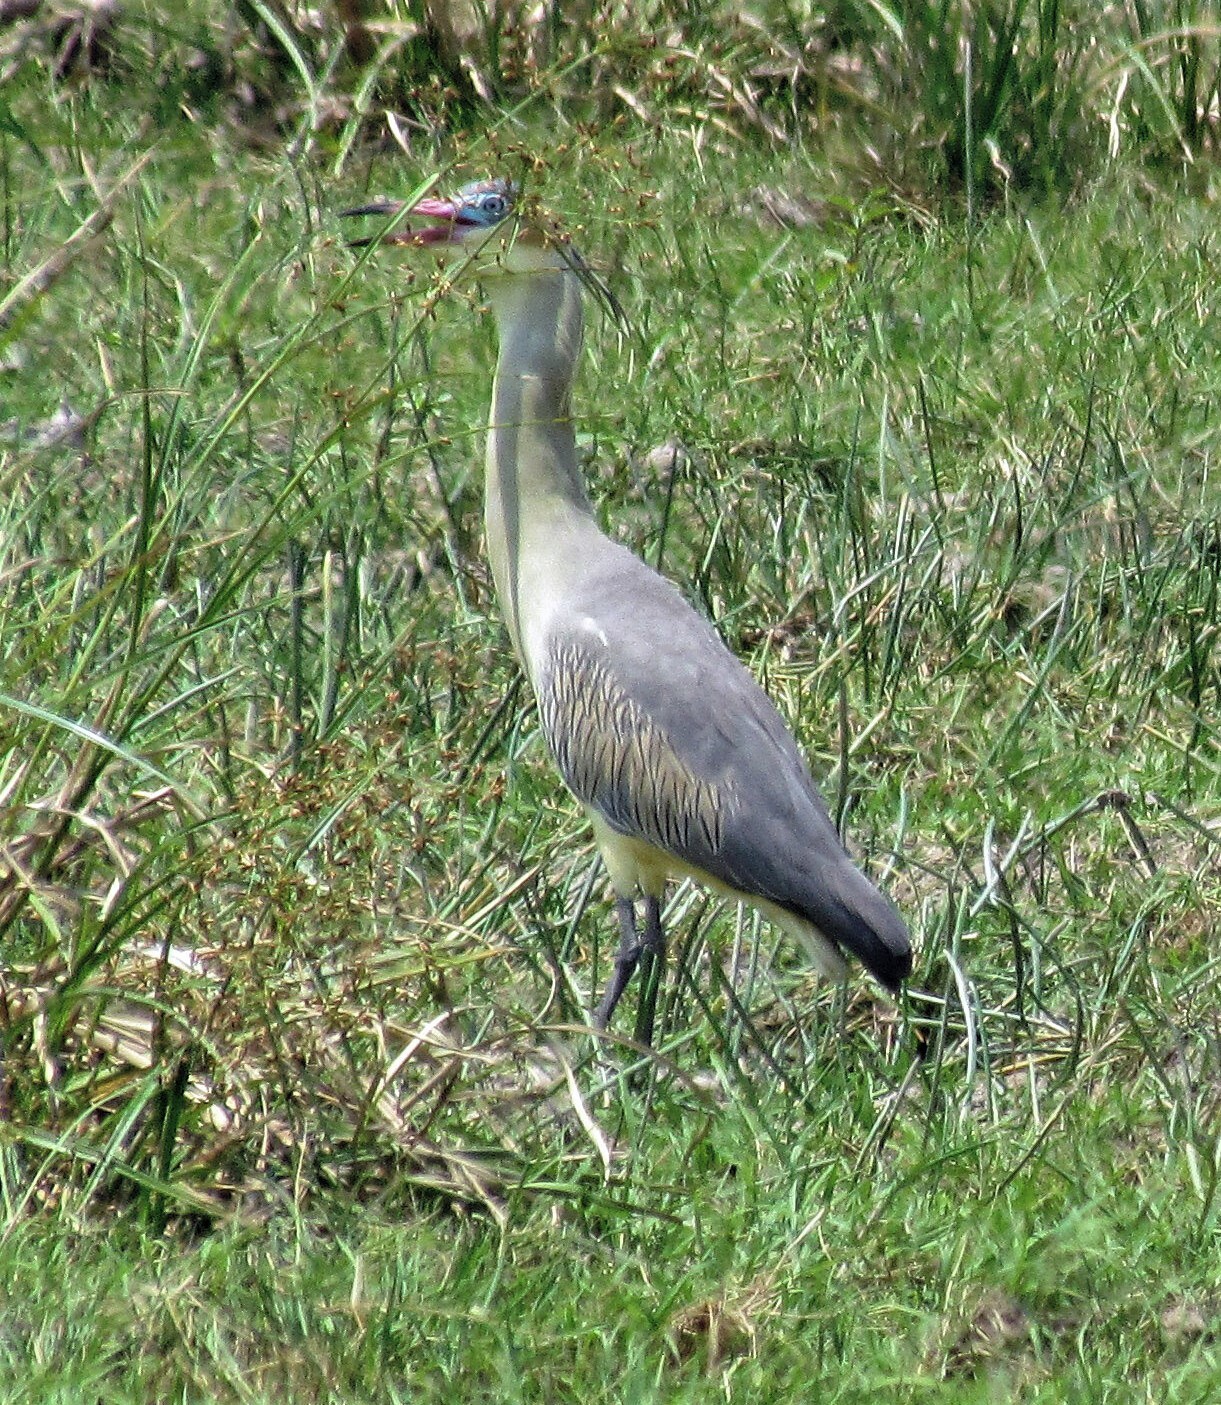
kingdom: Animalia
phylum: Chordata
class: Aves
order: Pelecaniformes
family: Ardeidae
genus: Syrigma
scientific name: Syrigma sibilatrix
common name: Whistling heron
